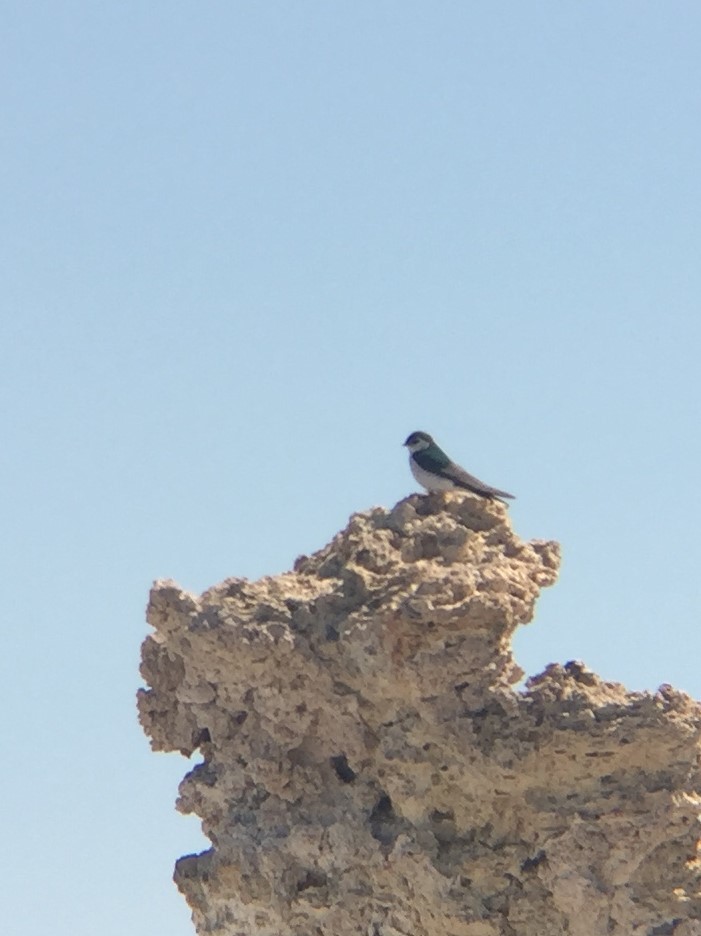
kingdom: Animalia
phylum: Chordata
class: Aves
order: Passeriformes
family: Hirundinidae
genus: Tachycineta
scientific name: Tachycineta thalassina
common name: Violet-green swallow
